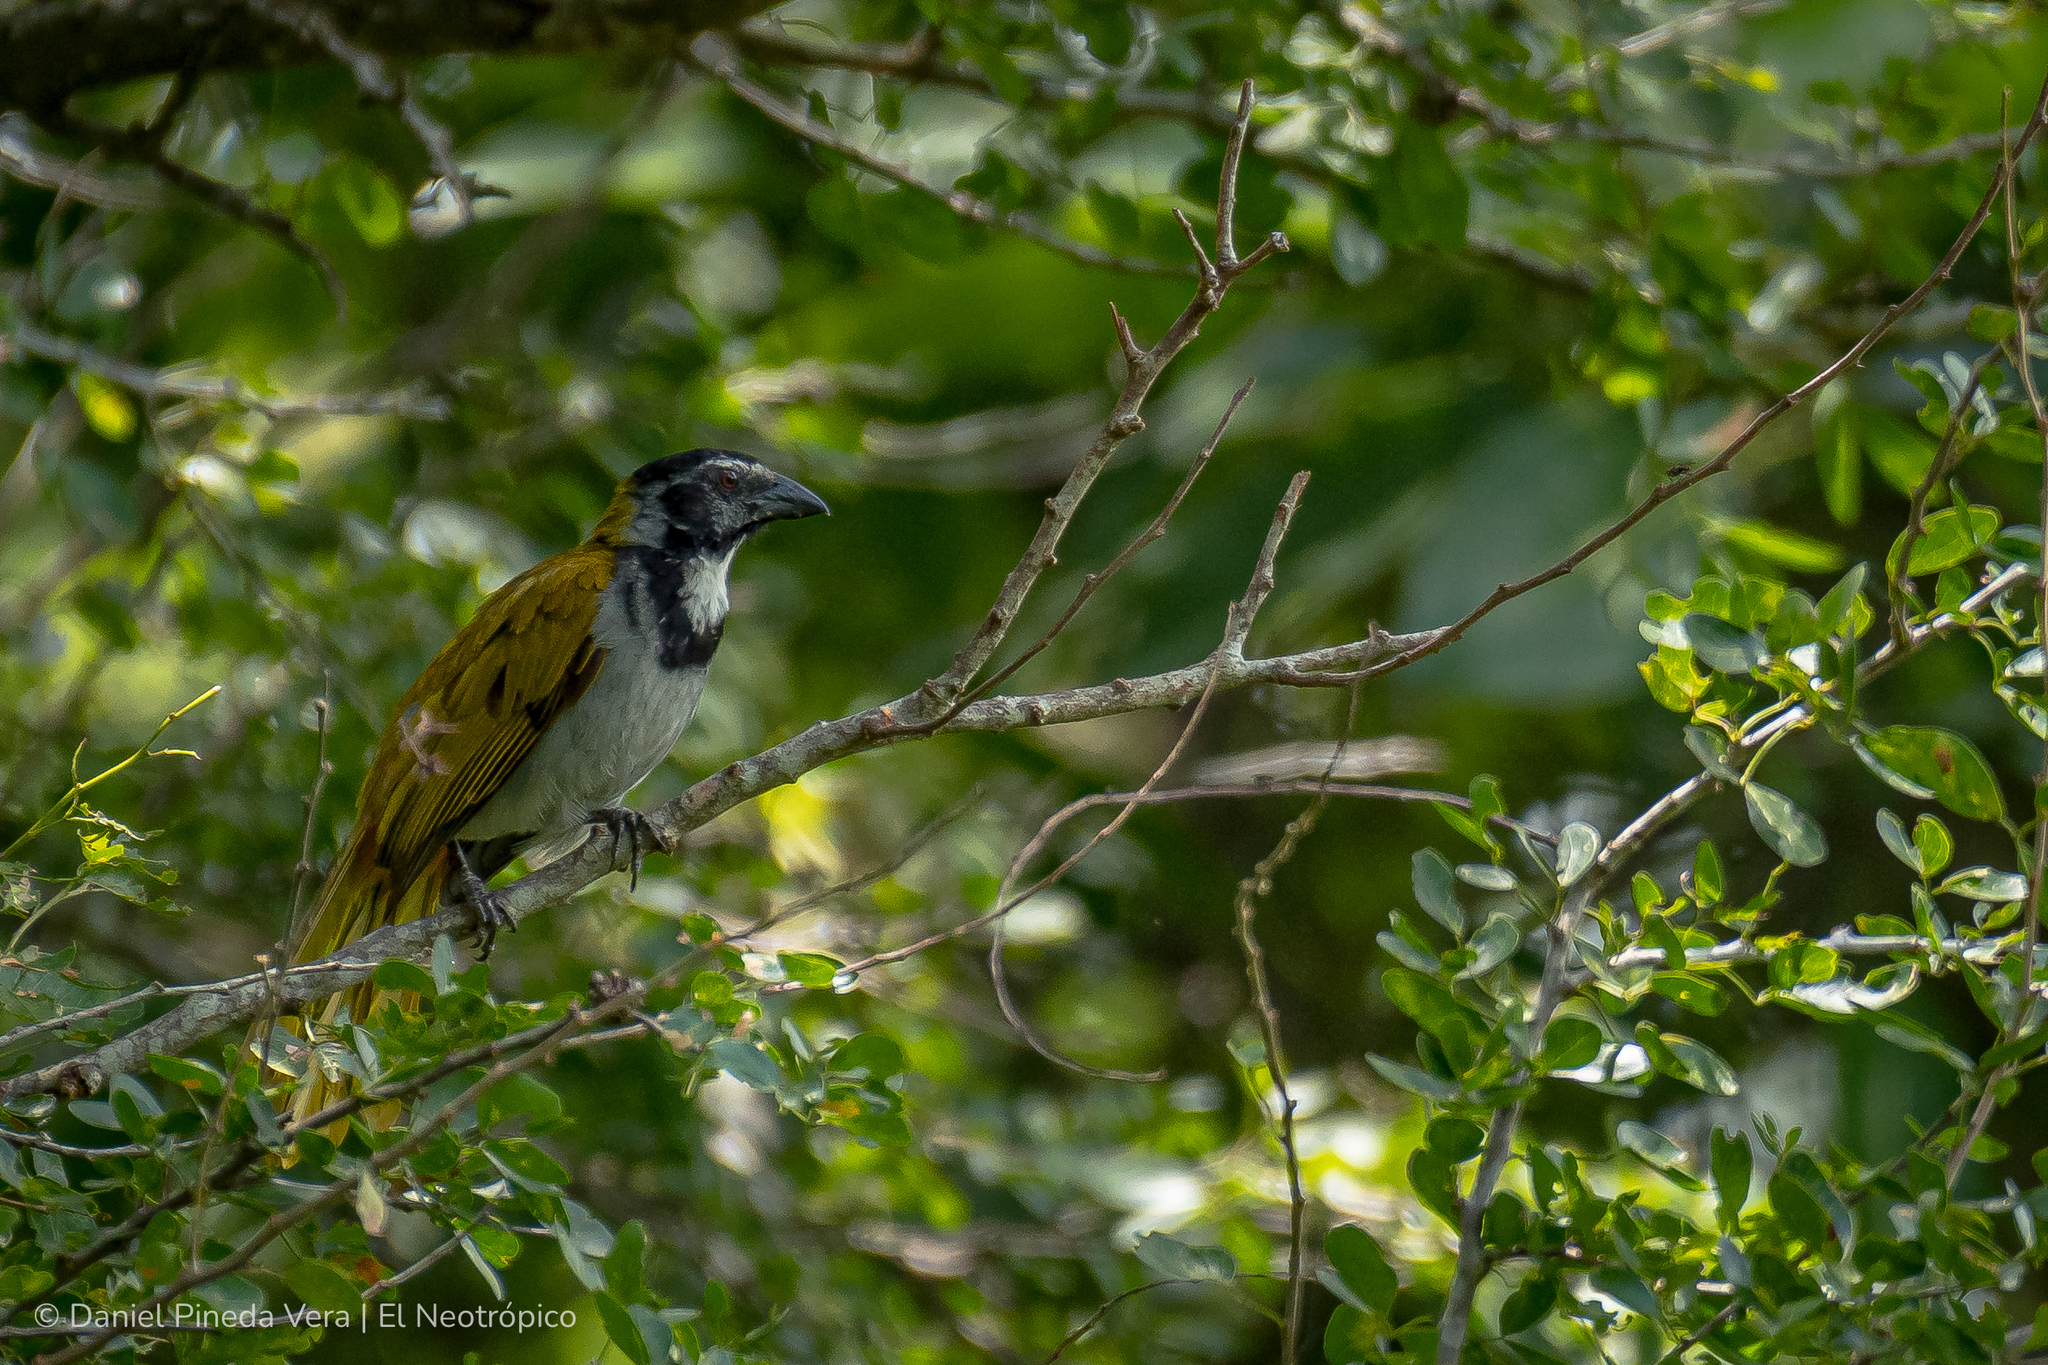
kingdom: Animalia
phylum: Chordata
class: Aves
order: Passeriformes
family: Thraupidae
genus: Saltator
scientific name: Saltator atriceps
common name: Black-headed saltator
